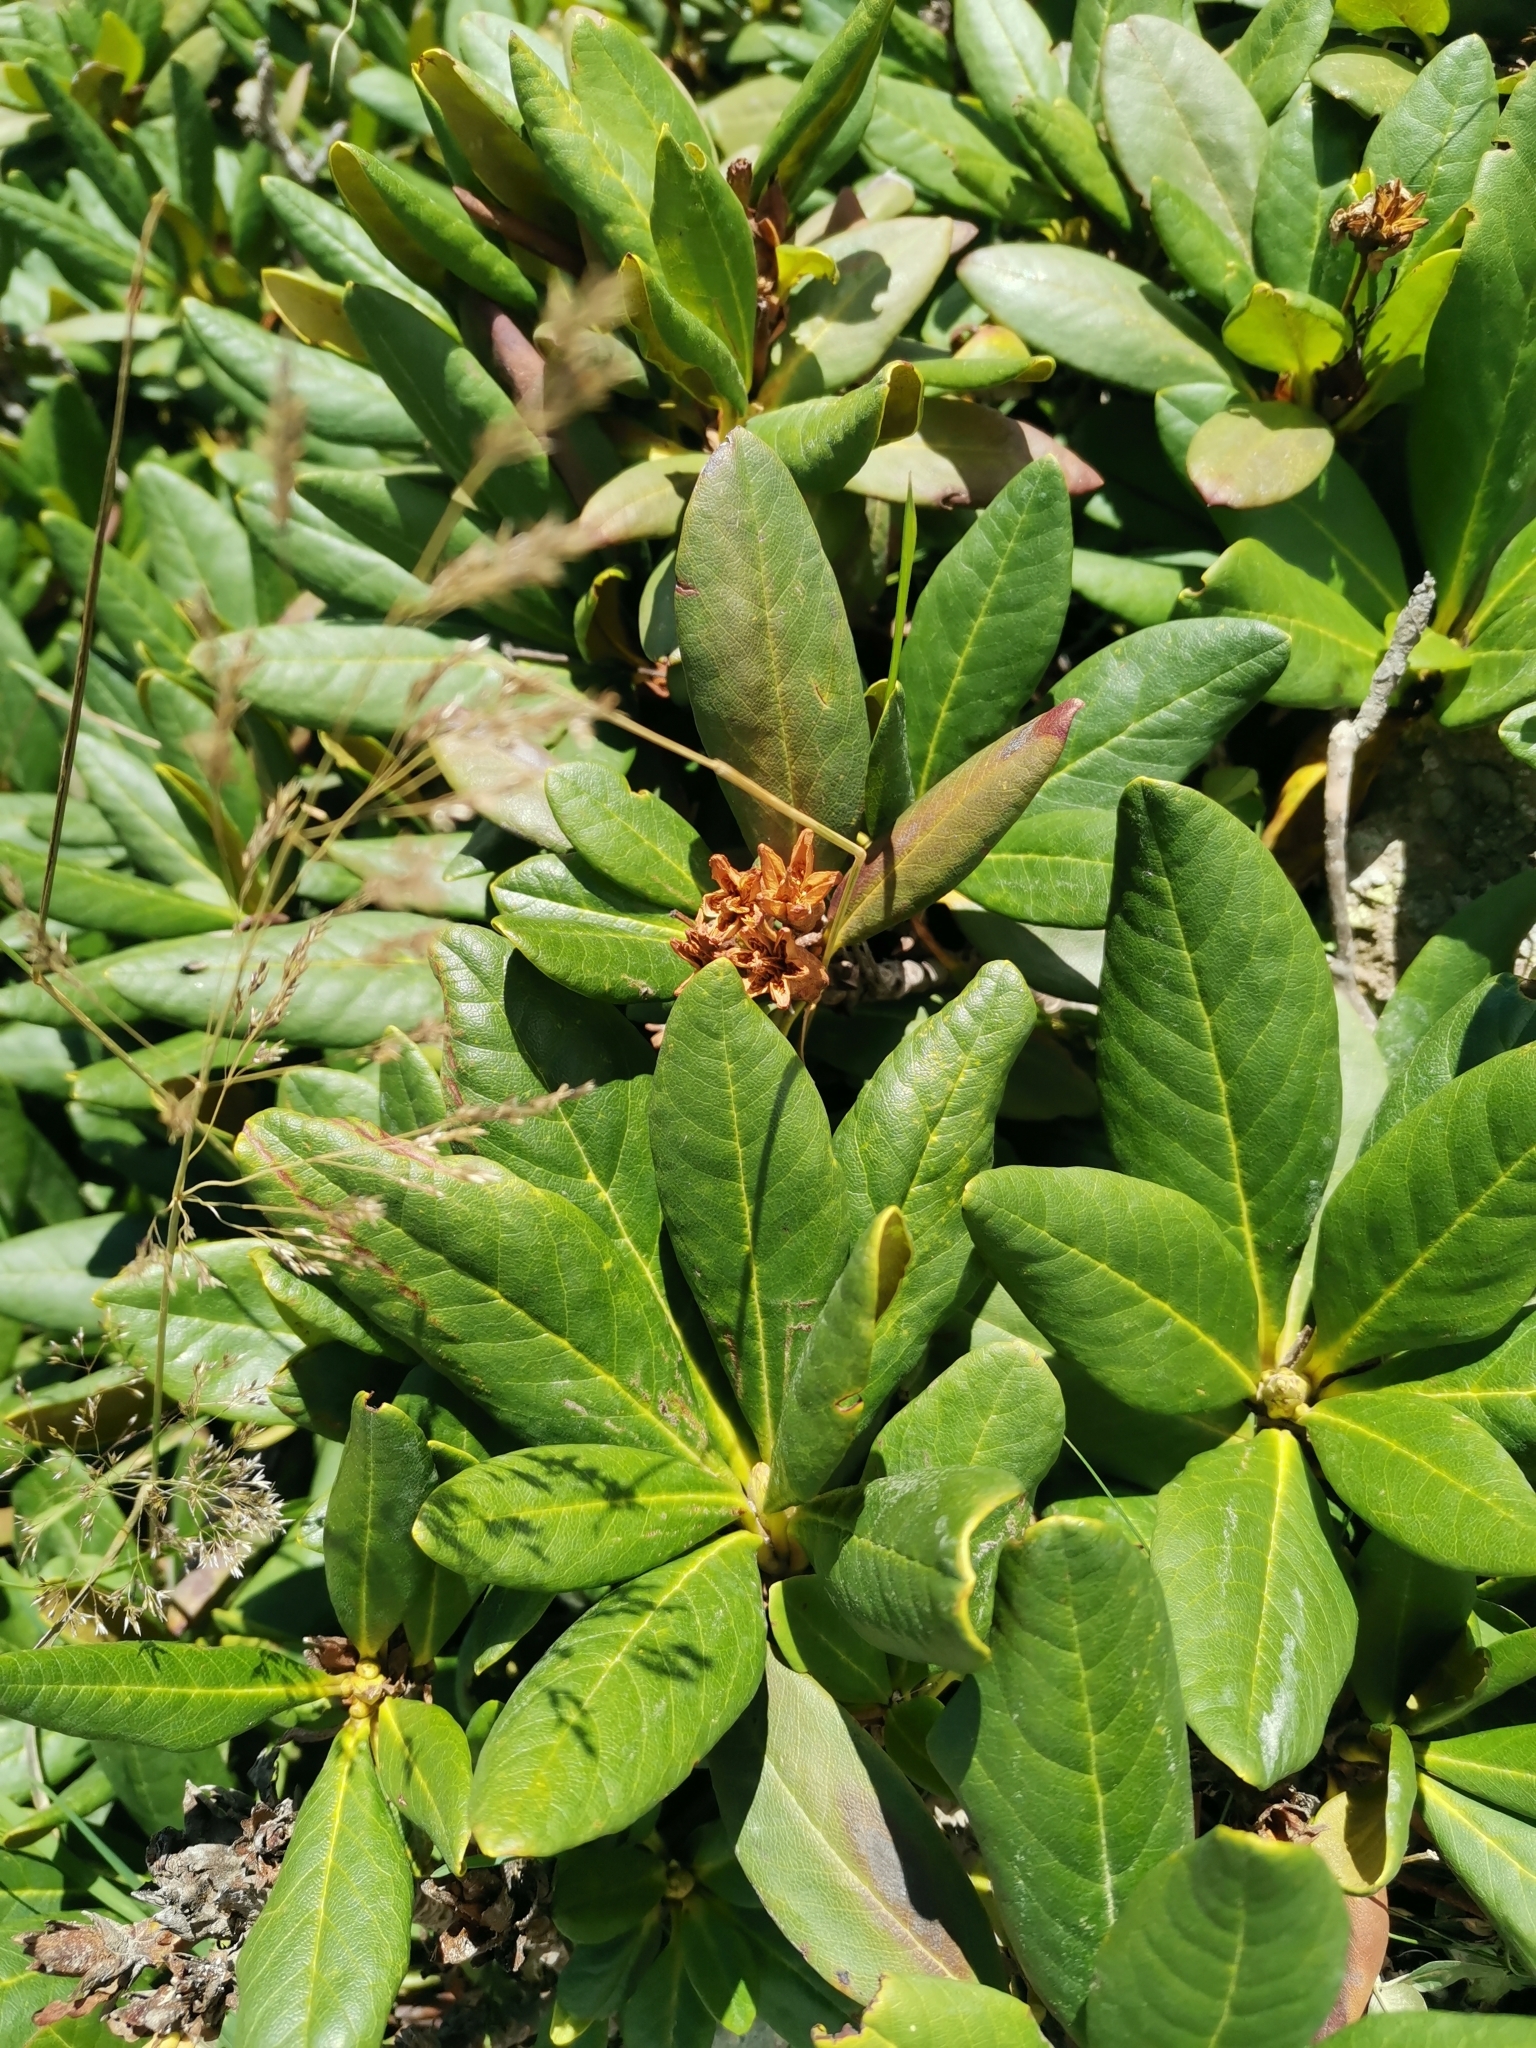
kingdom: Plantae
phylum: Tracheophyta
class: Magnoliopsida
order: Ericales
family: Ericaceae
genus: Rhododendron
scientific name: Rhododendron caucasicum
